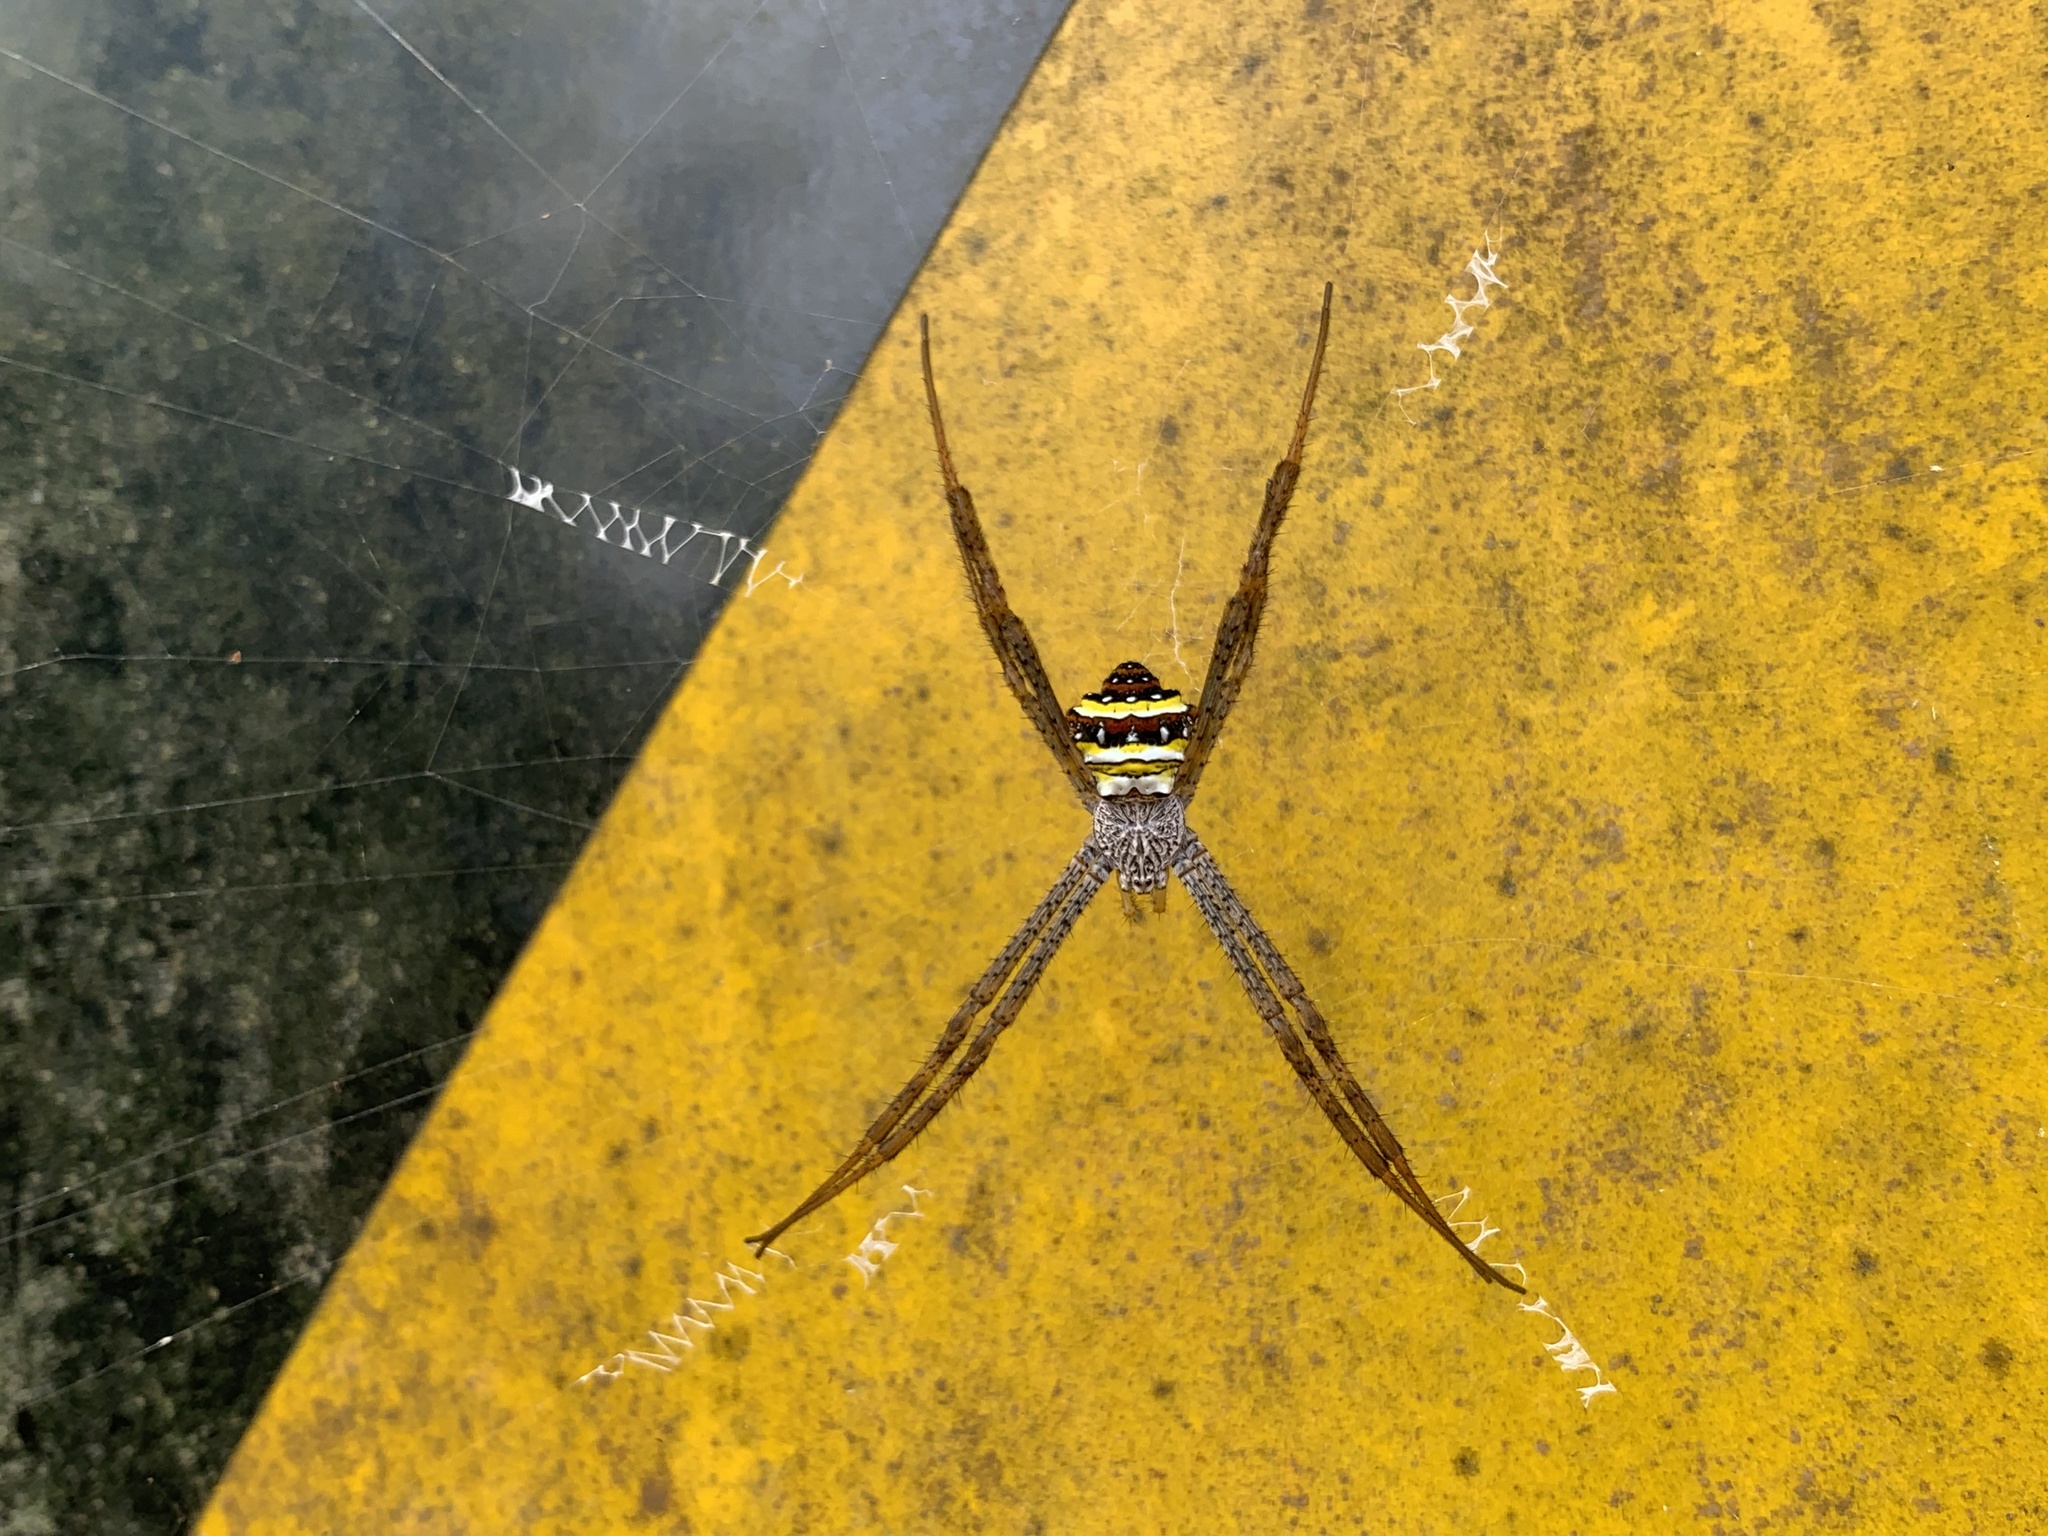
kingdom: Animalia
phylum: Arthropoda
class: Arachnida
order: Araneae
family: Araneidae
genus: Argiope
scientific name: Argiope aetheroides
